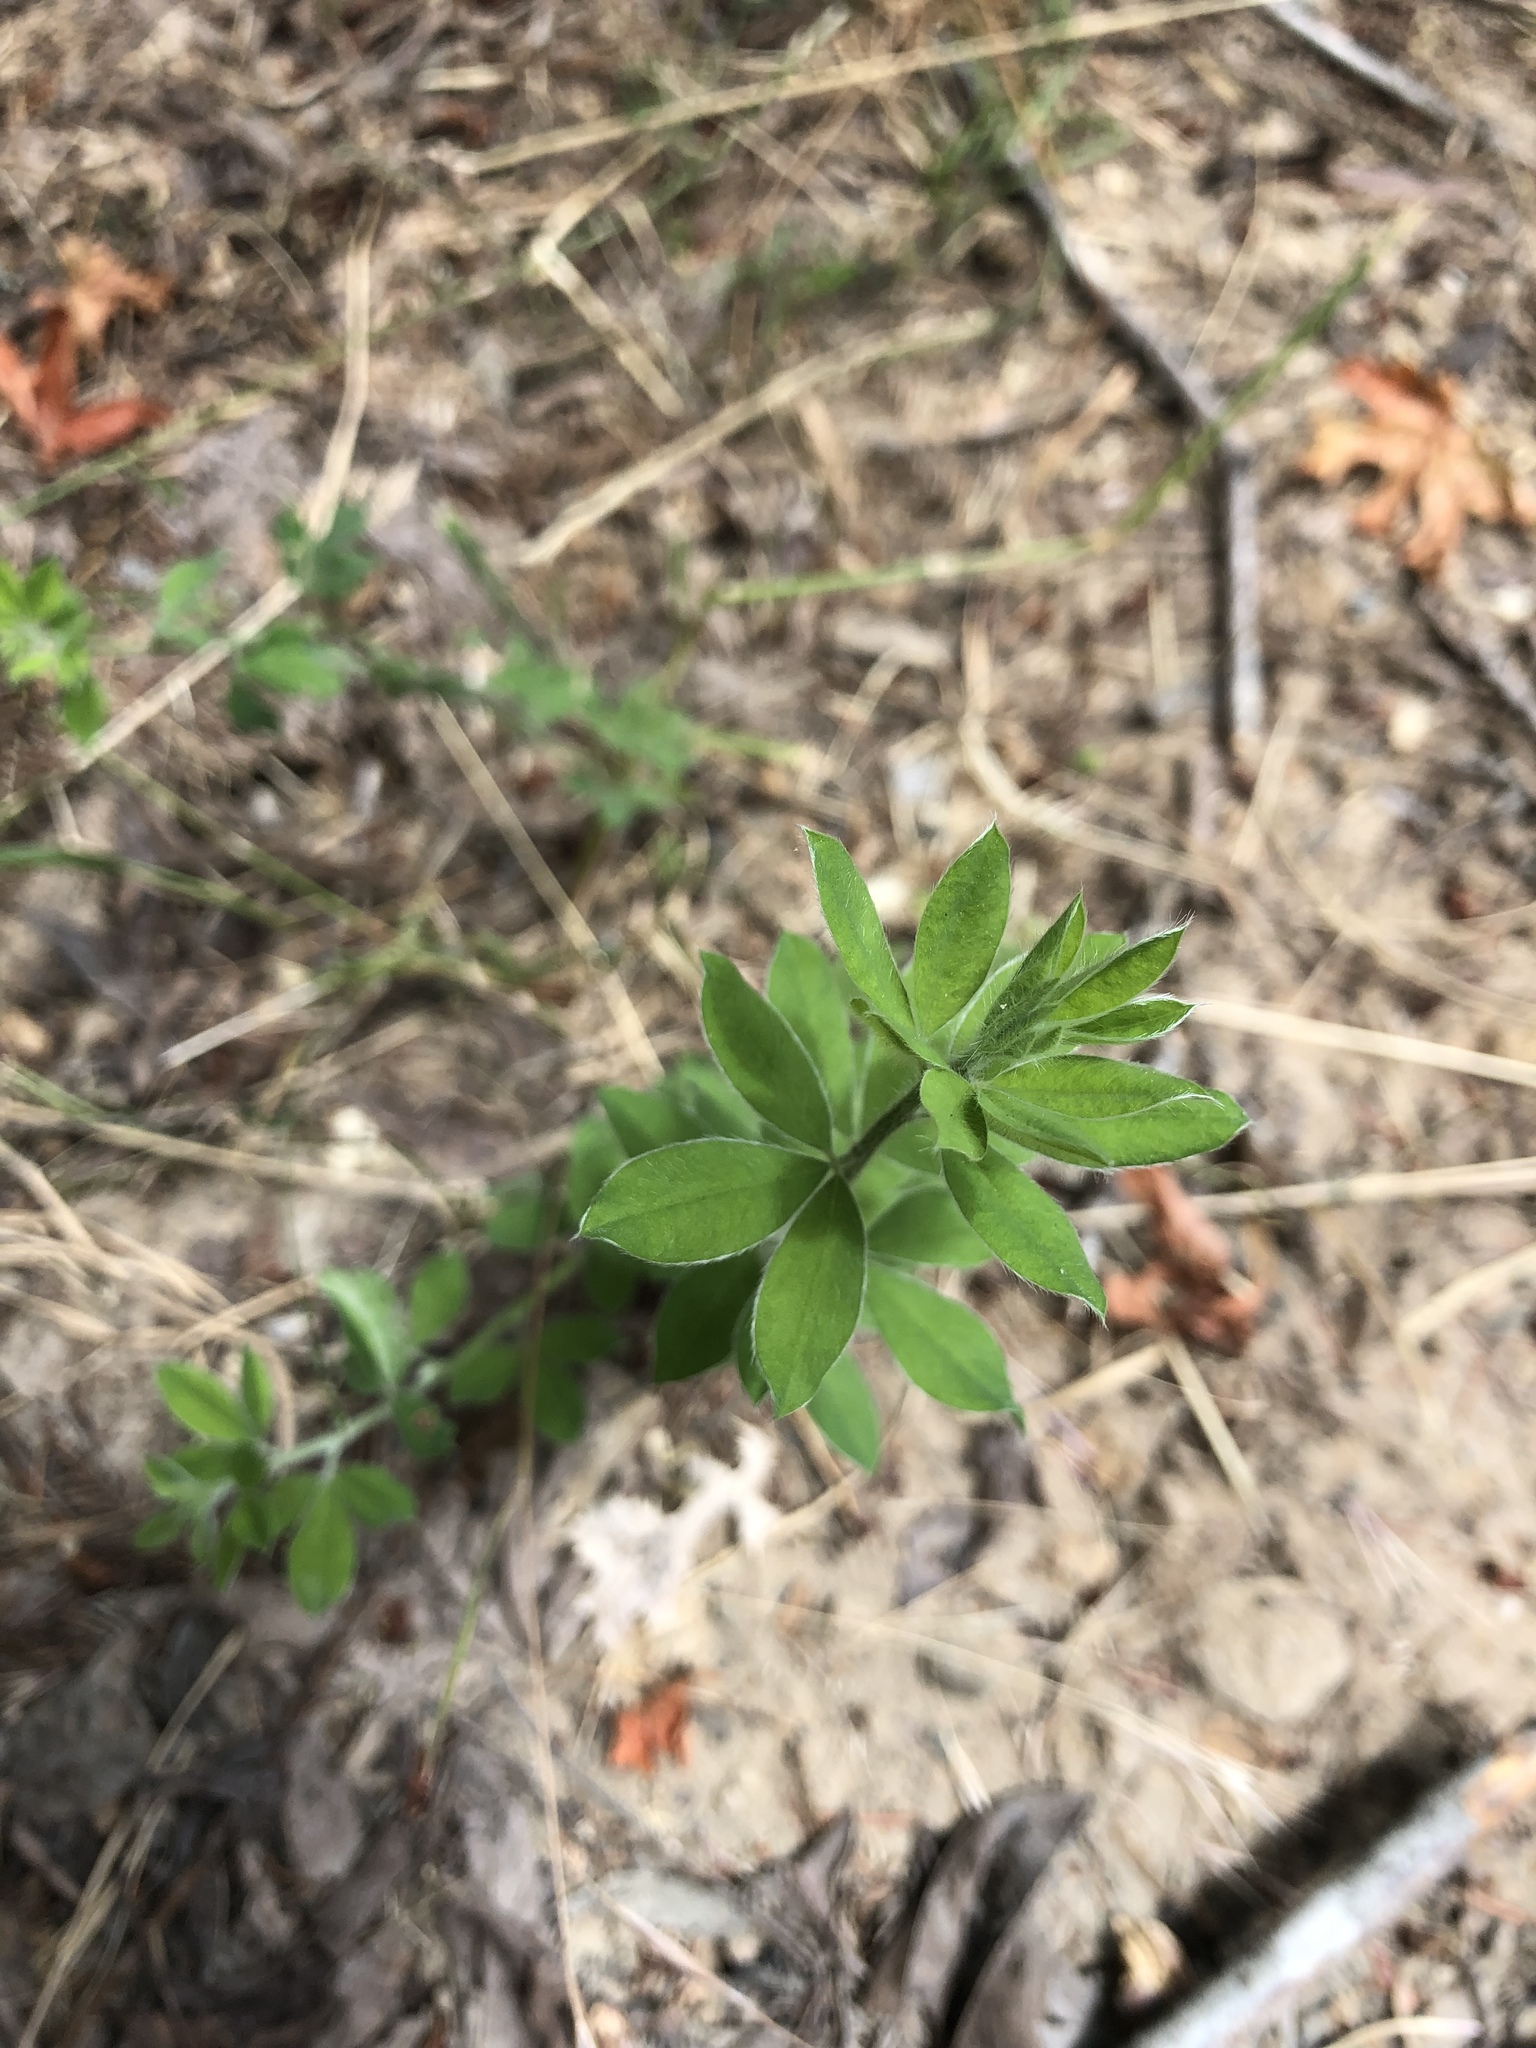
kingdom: Plantae
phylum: Tracheophyta
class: Magnoliopsida
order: Fabales
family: Fabaceae
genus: Genista
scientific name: Genista monspessulana
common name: Montpellier broom
